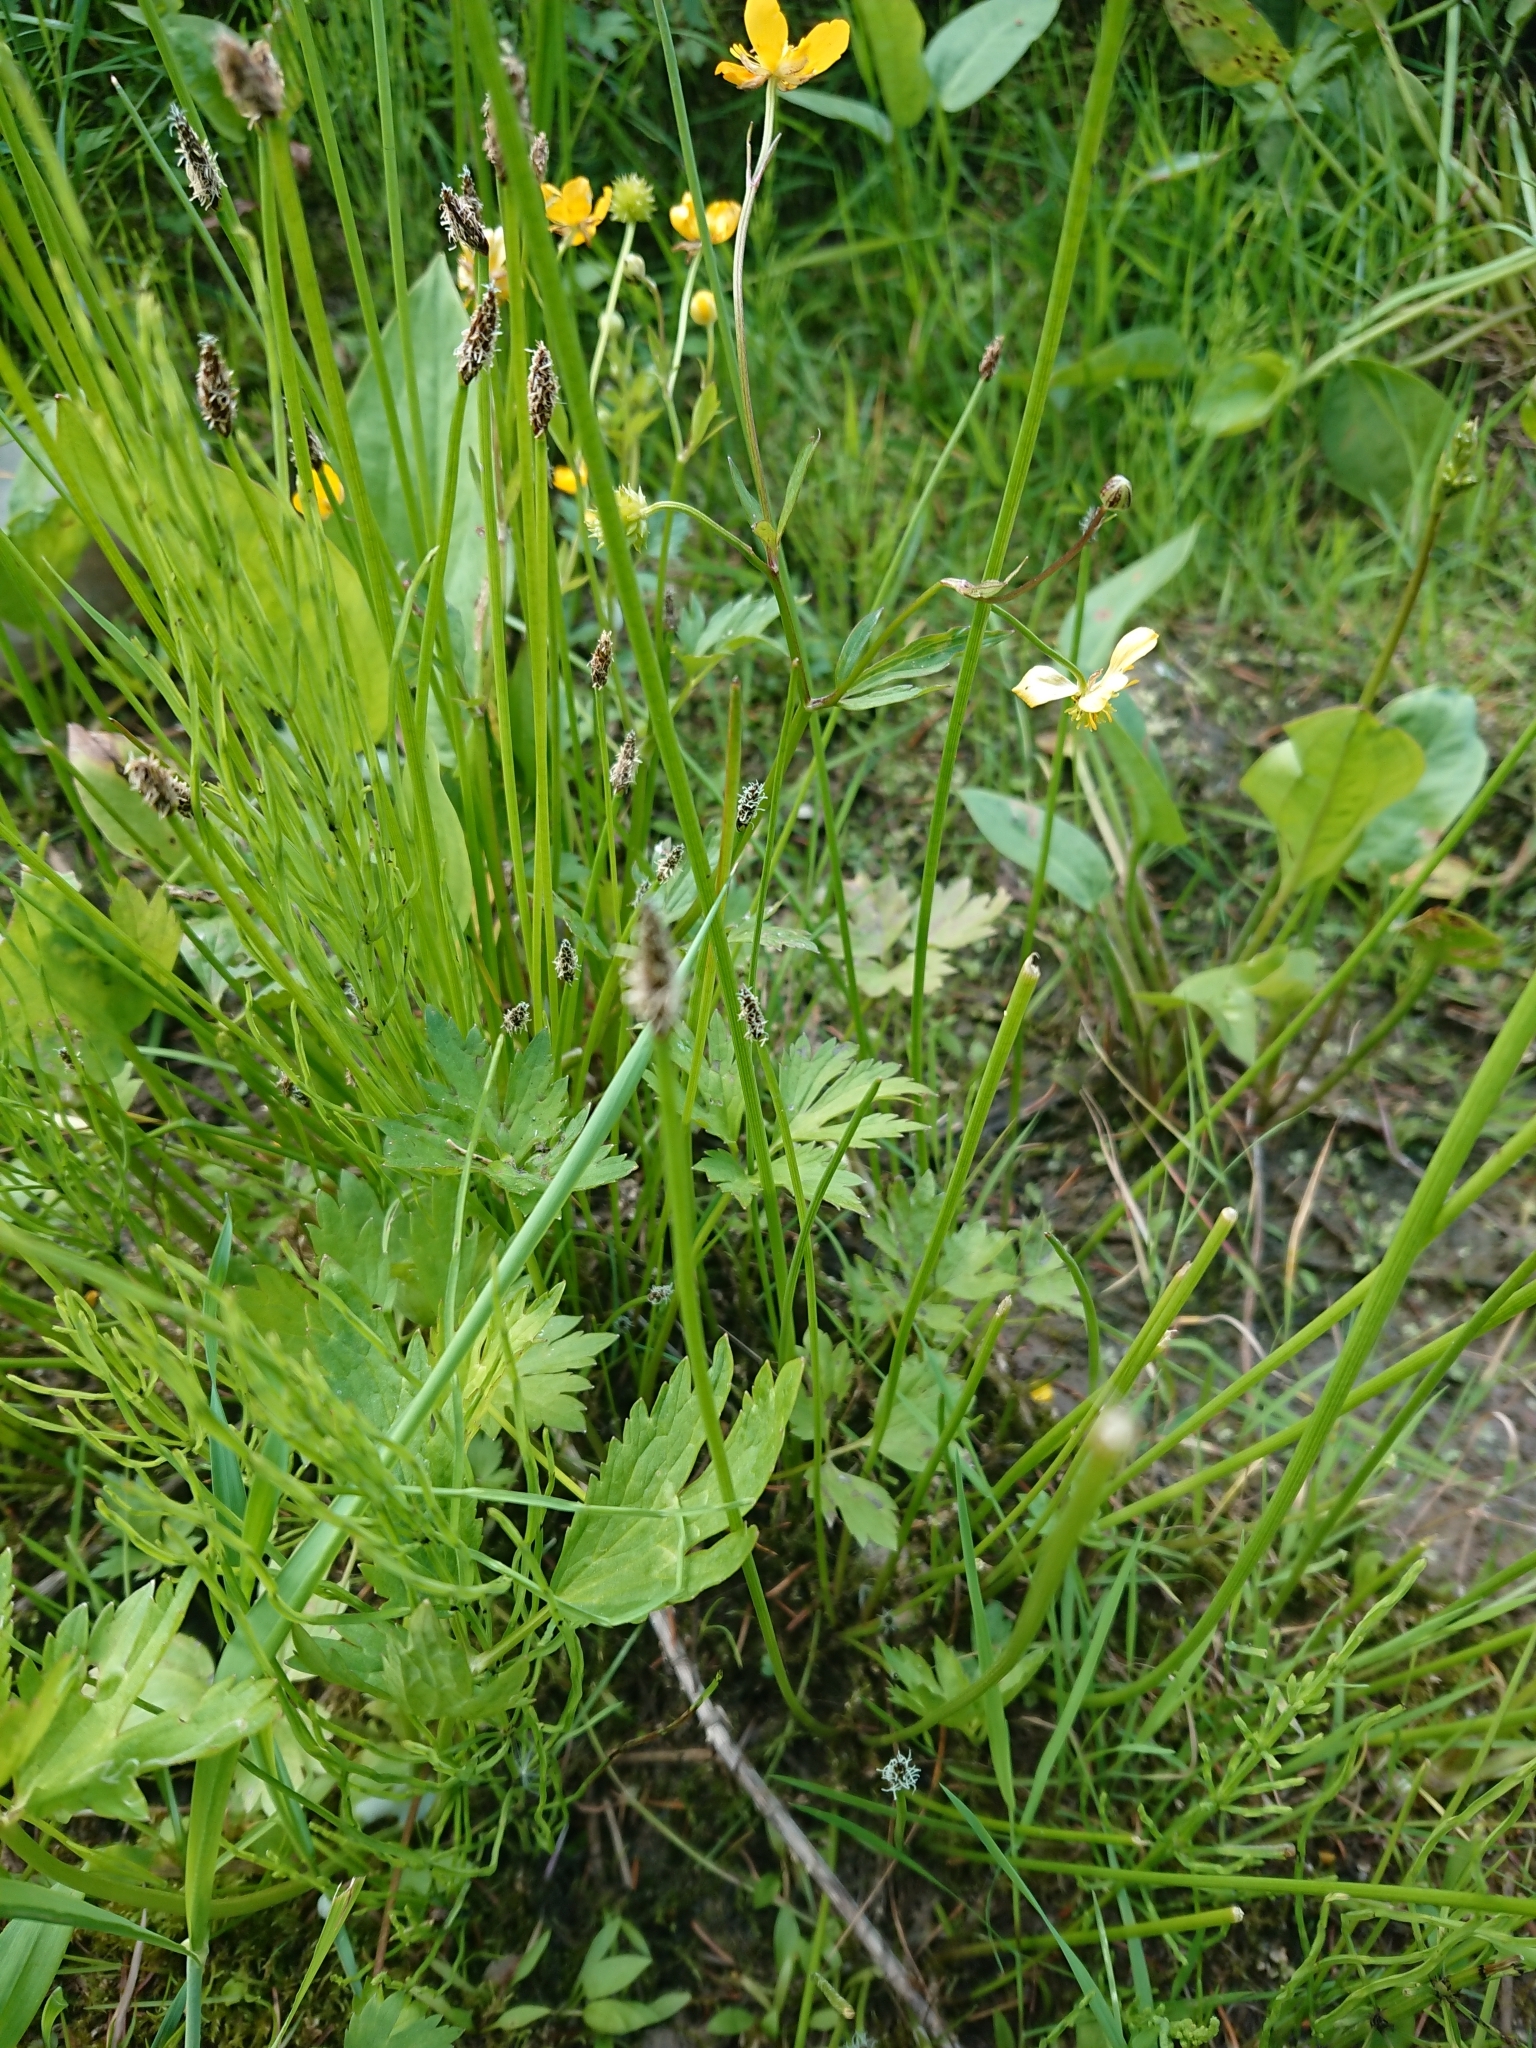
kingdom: Plantae
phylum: Tracheophyta
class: Magnoliopsida
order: Ranunculales
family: Ranunculaceae
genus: Ranunculus
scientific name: Ranunculus repens
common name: Creeping buttercup
